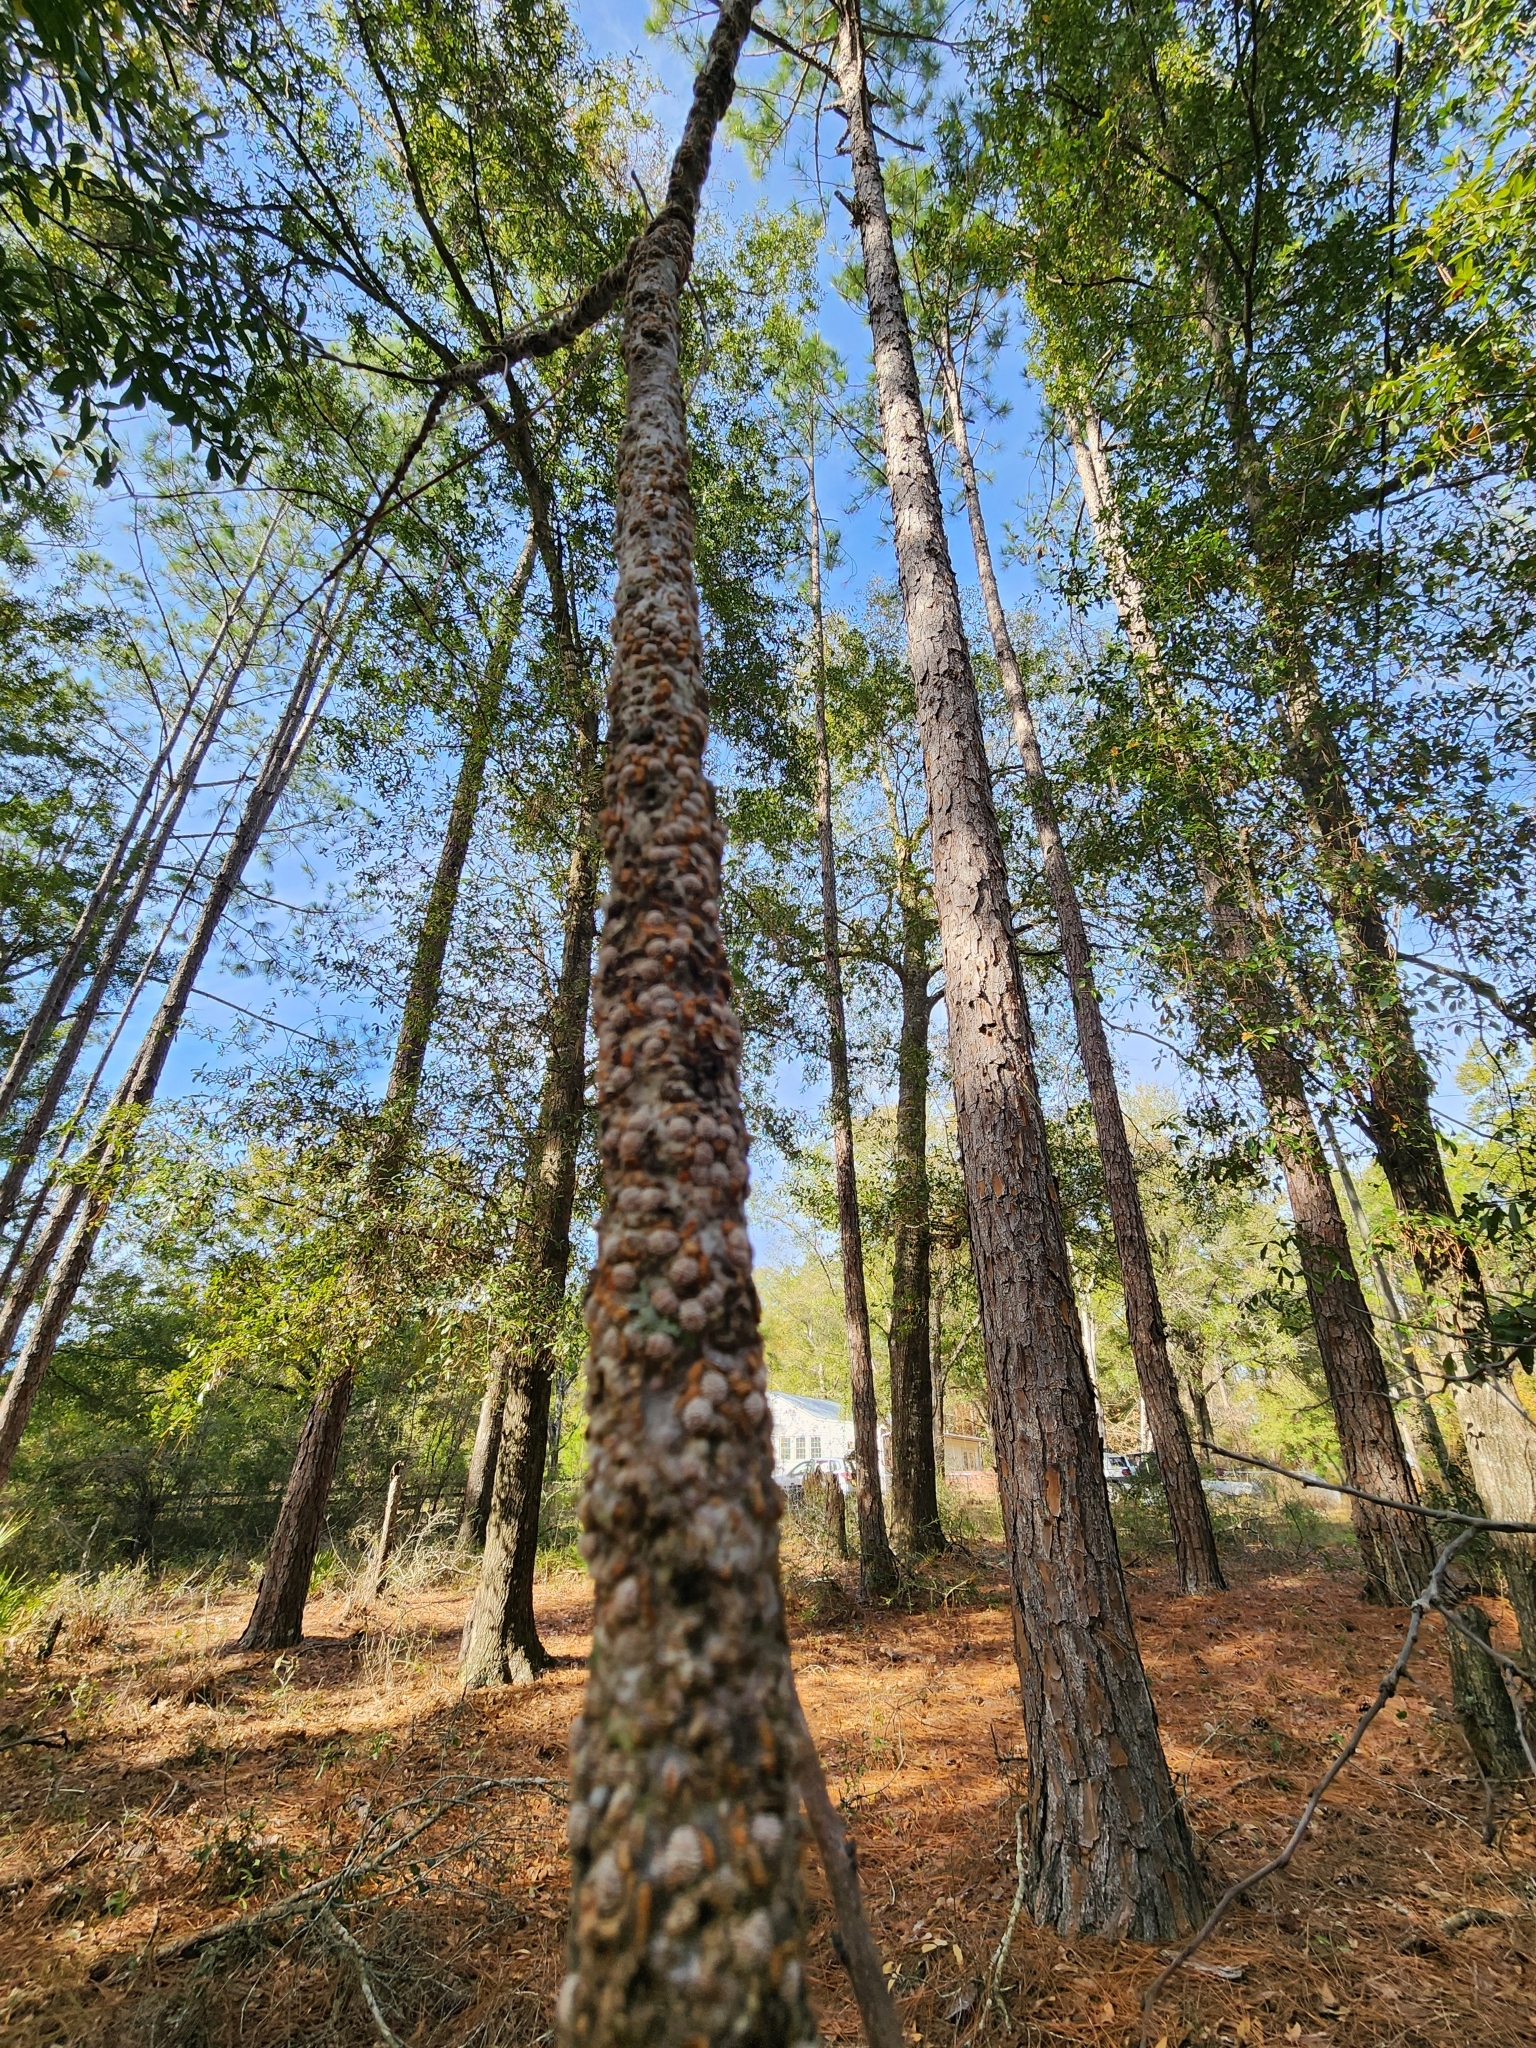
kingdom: Animalia
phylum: Arthropoda
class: Insecta
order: Hemiptera
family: Lecanodiaspididae
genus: Lecanodiaspis
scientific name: Lecanodiaspis prosopidis
